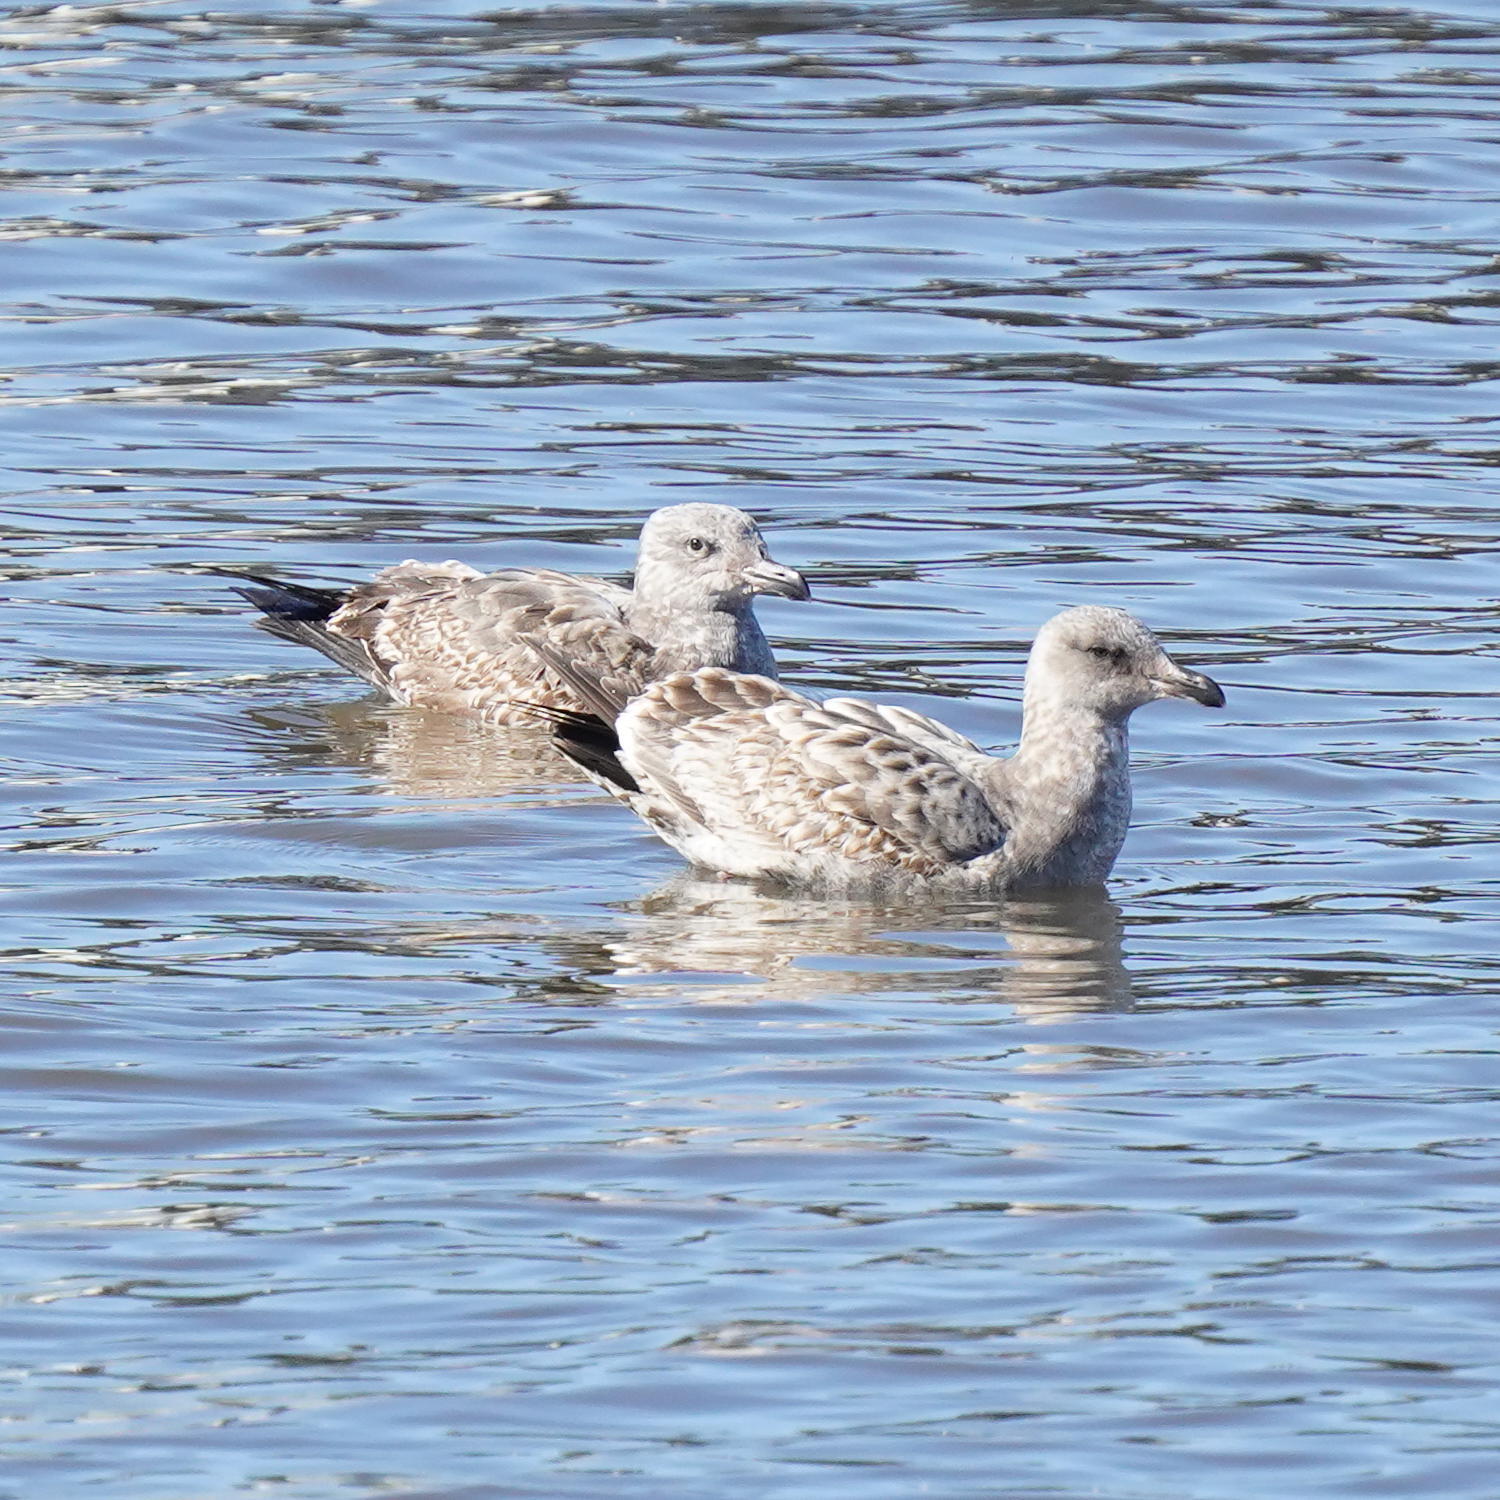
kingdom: Animalia
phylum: Chordata
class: Aves
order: Charadriiformes
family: Laridae
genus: Larus
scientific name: Larus occidentalis
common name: Western gull
